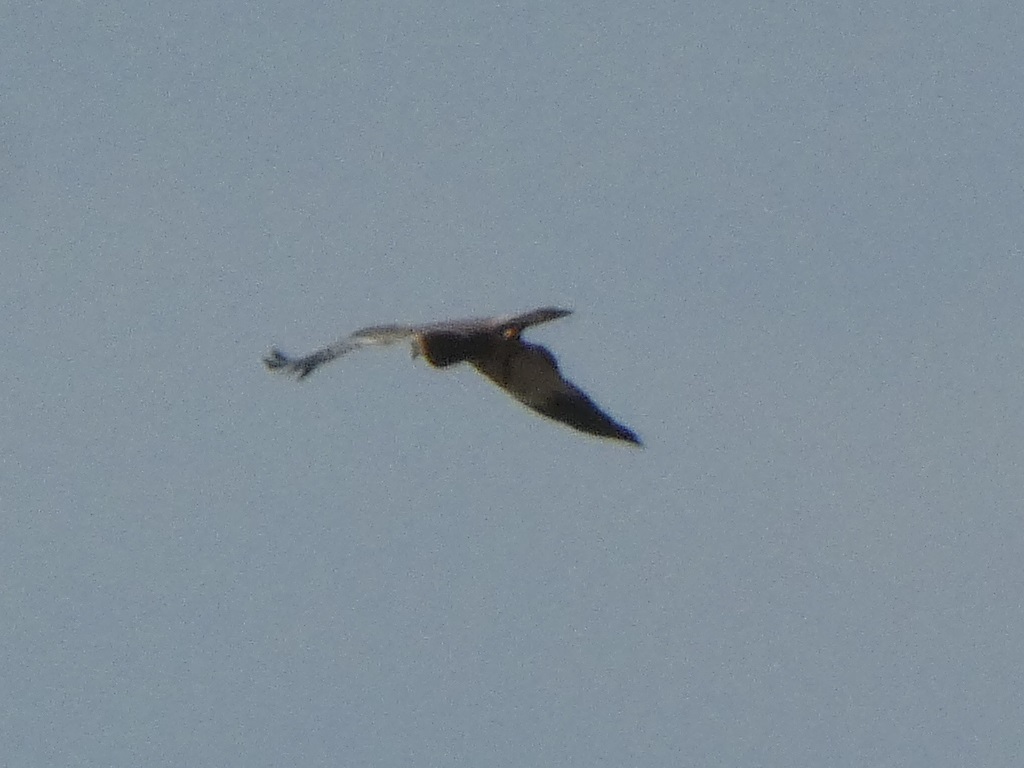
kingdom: Animalia
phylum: Chordata
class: Aves
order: Accipitriformes
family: Accipitridae
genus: Circus
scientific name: Circus aeruginosus
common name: Western marsh harrier
